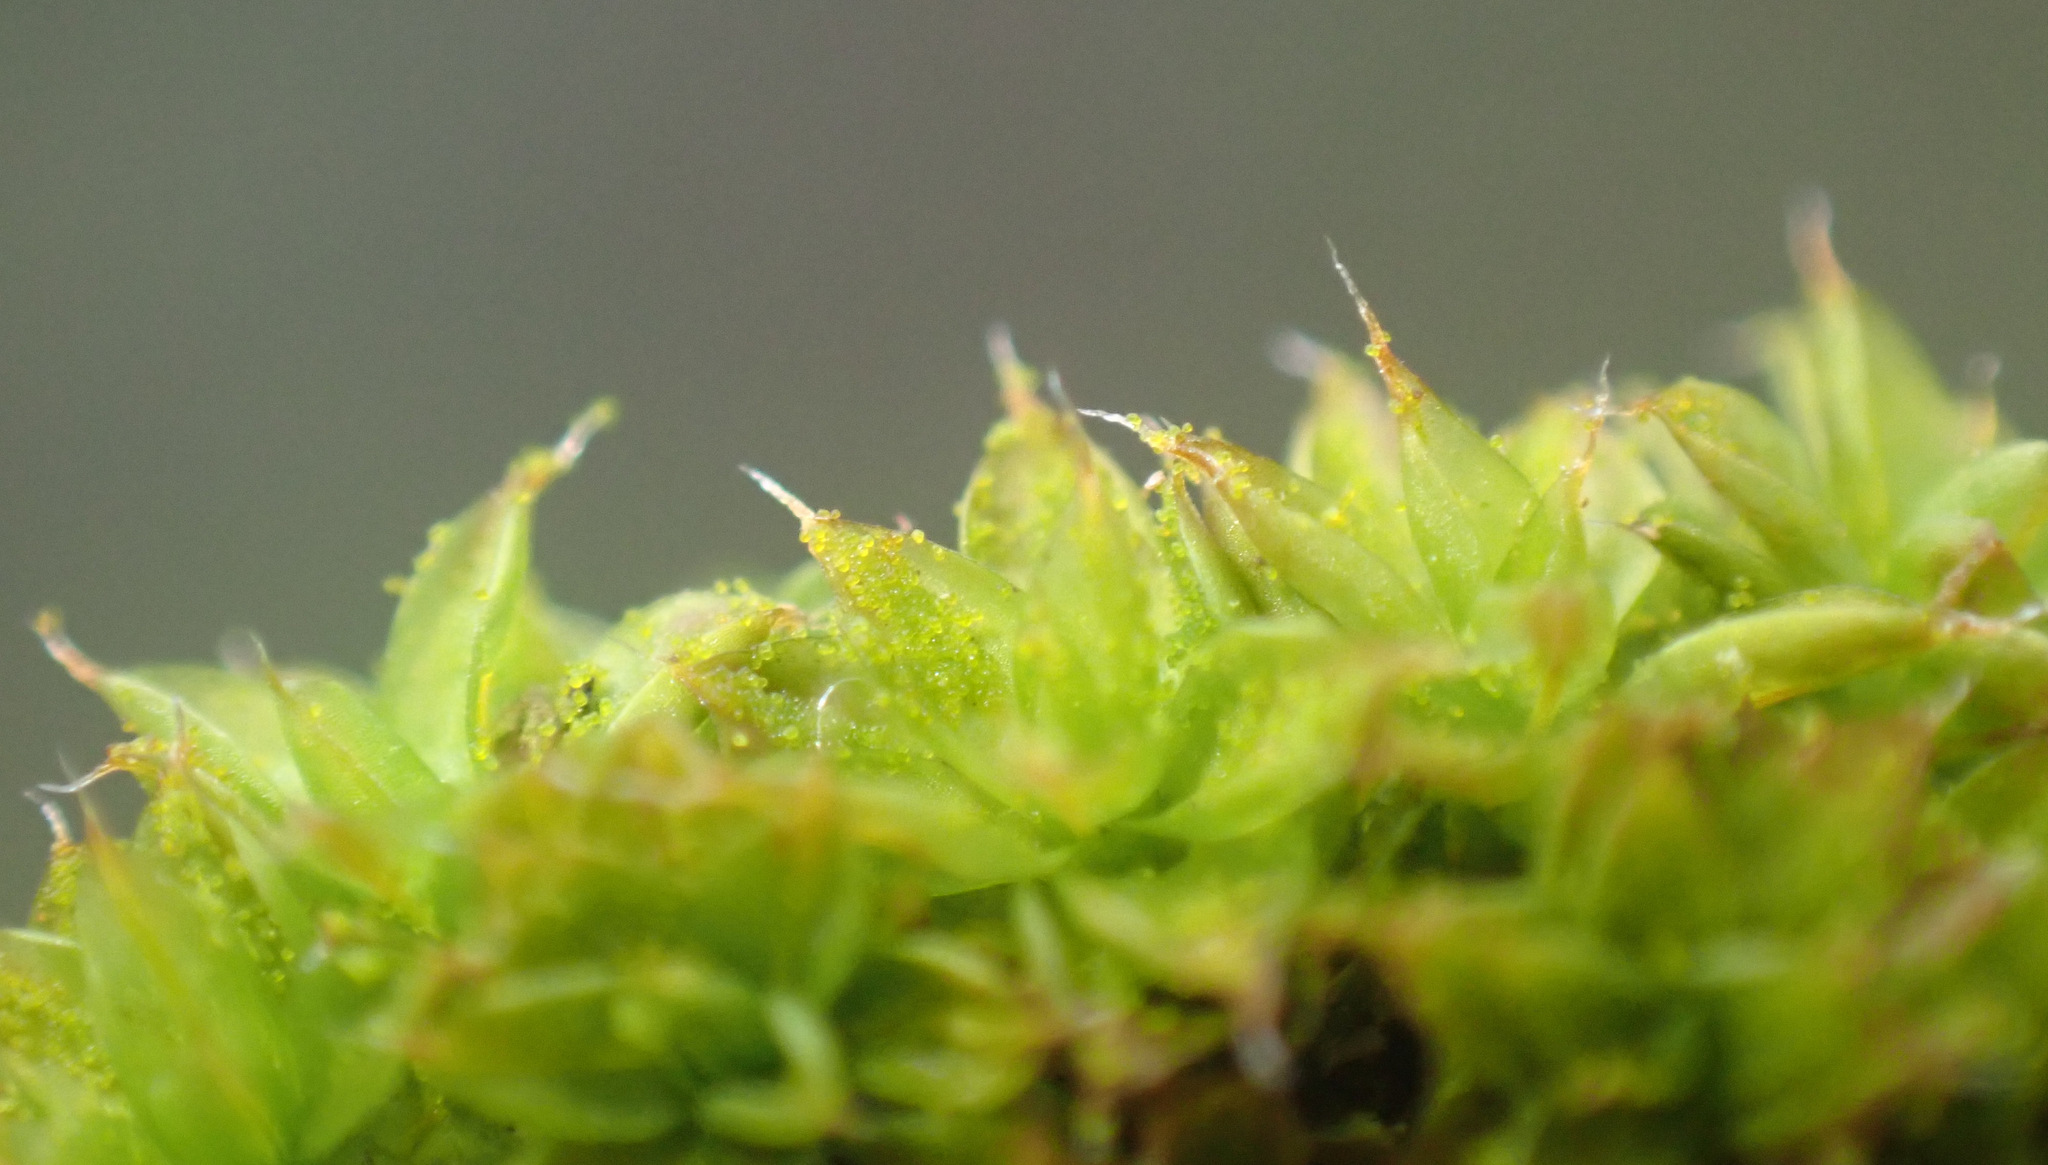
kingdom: Plantae
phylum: Bryophyta
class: Bryopsida
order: Pottiales
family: Pottiaceae
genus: Syntrichia
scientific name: Syntrichia papillosa
